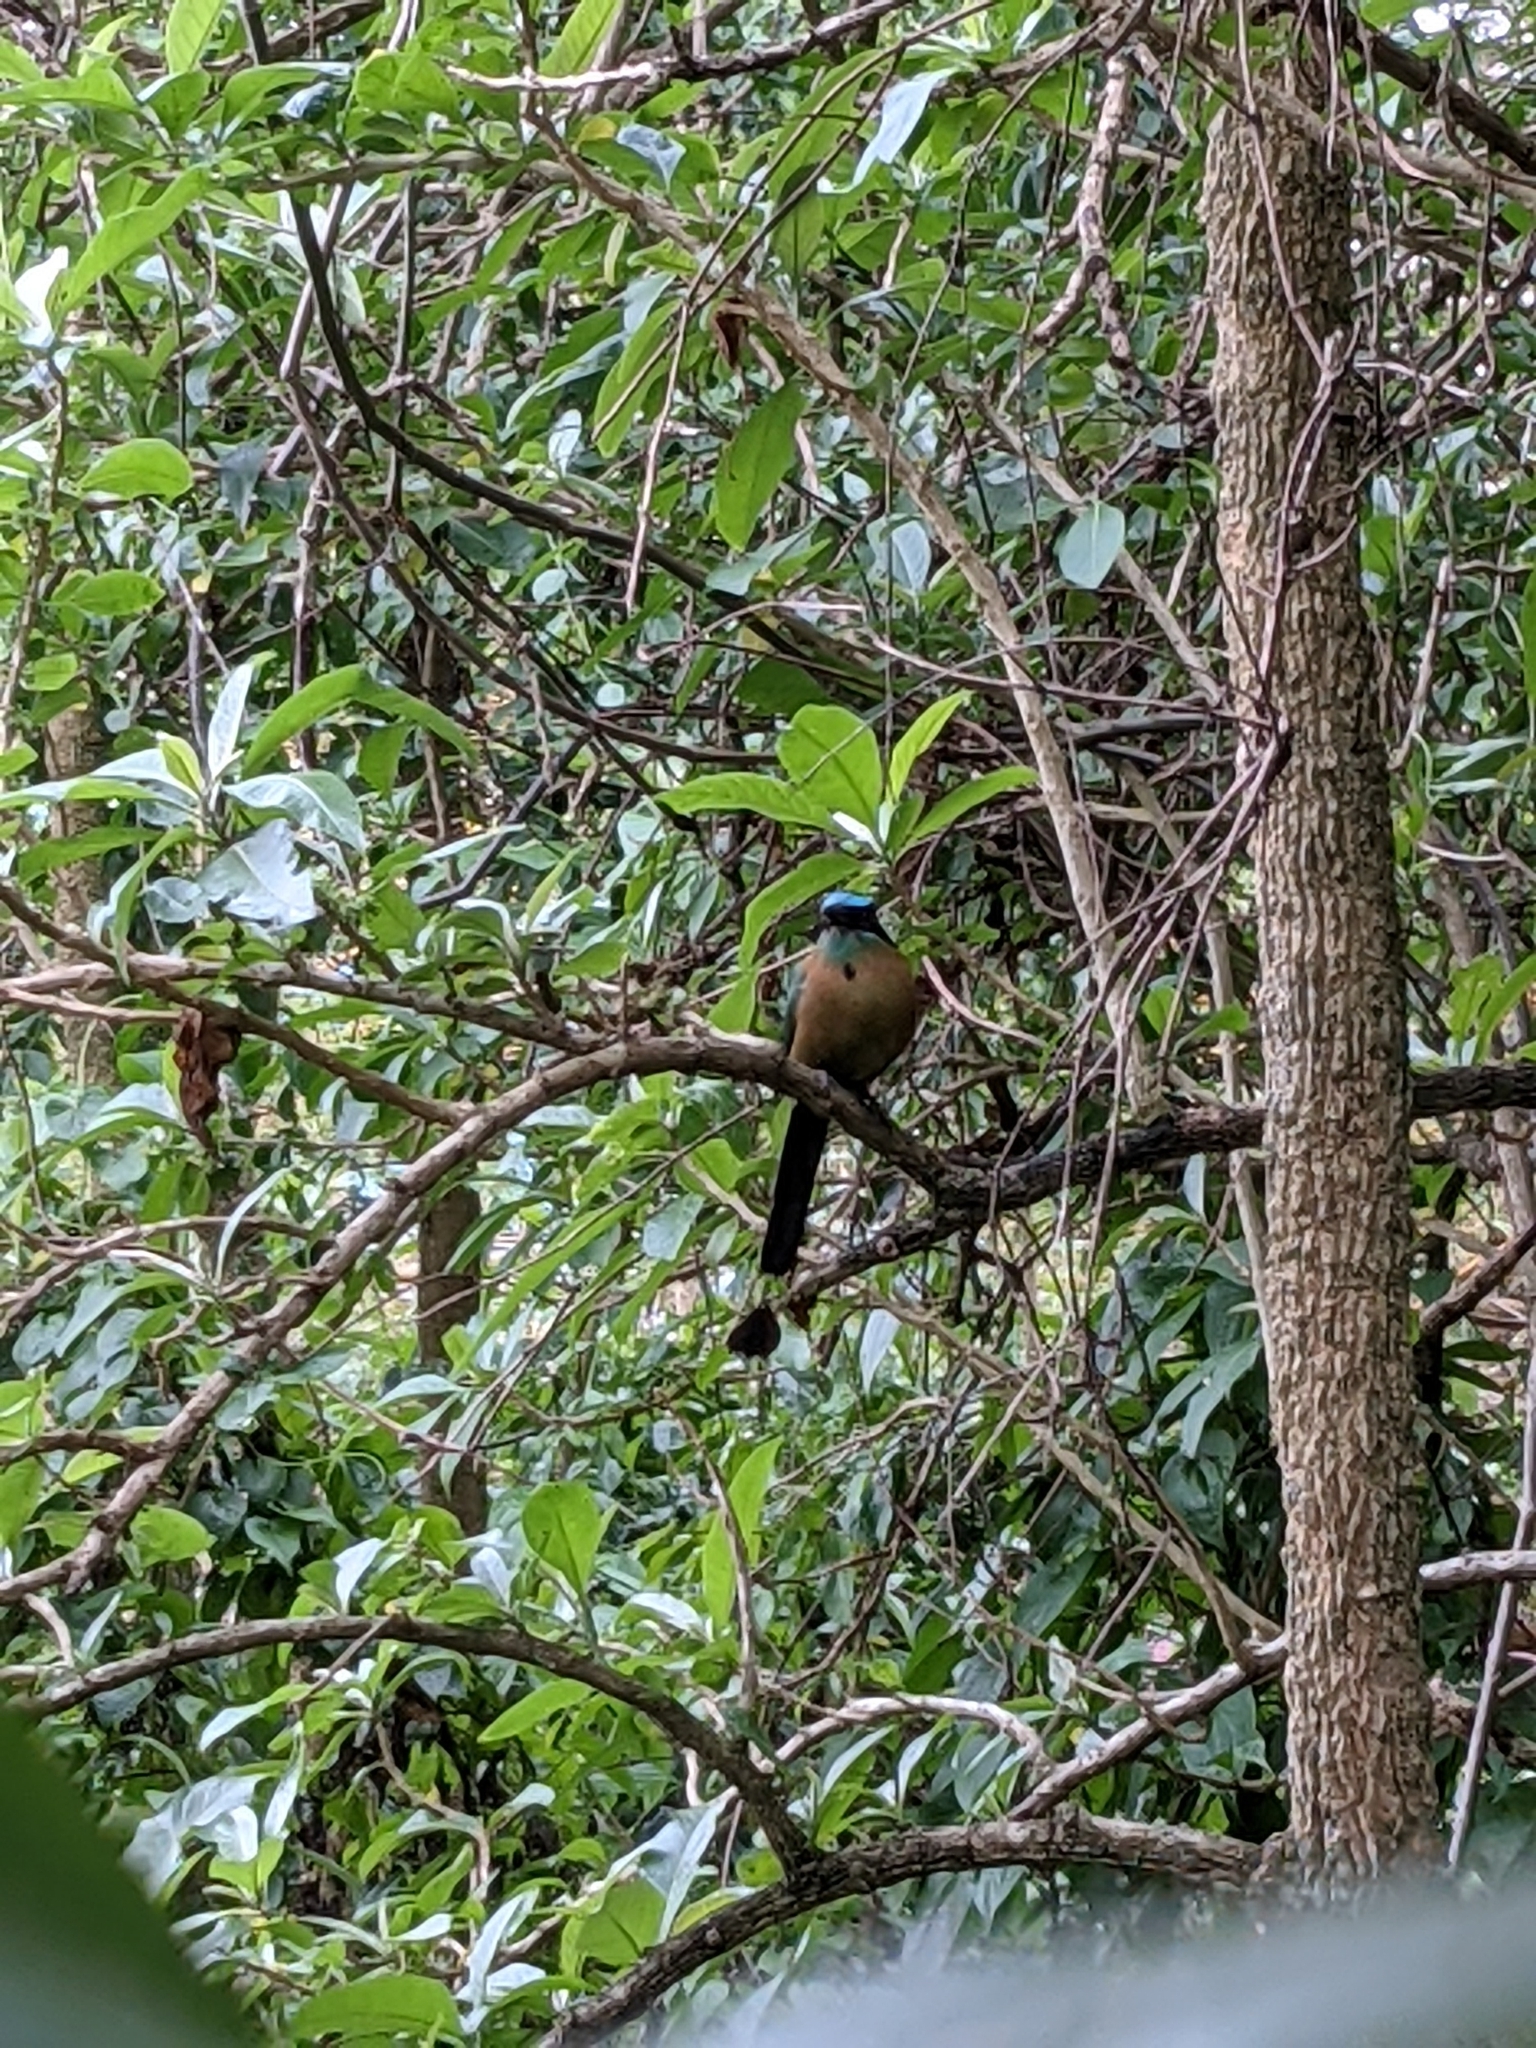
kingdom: Animalia
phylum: Chordata
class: Aves
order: Coraciiformes
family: Momotidae
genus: Momotus
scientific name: Momotus lessonii
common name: Lesson's motmot
